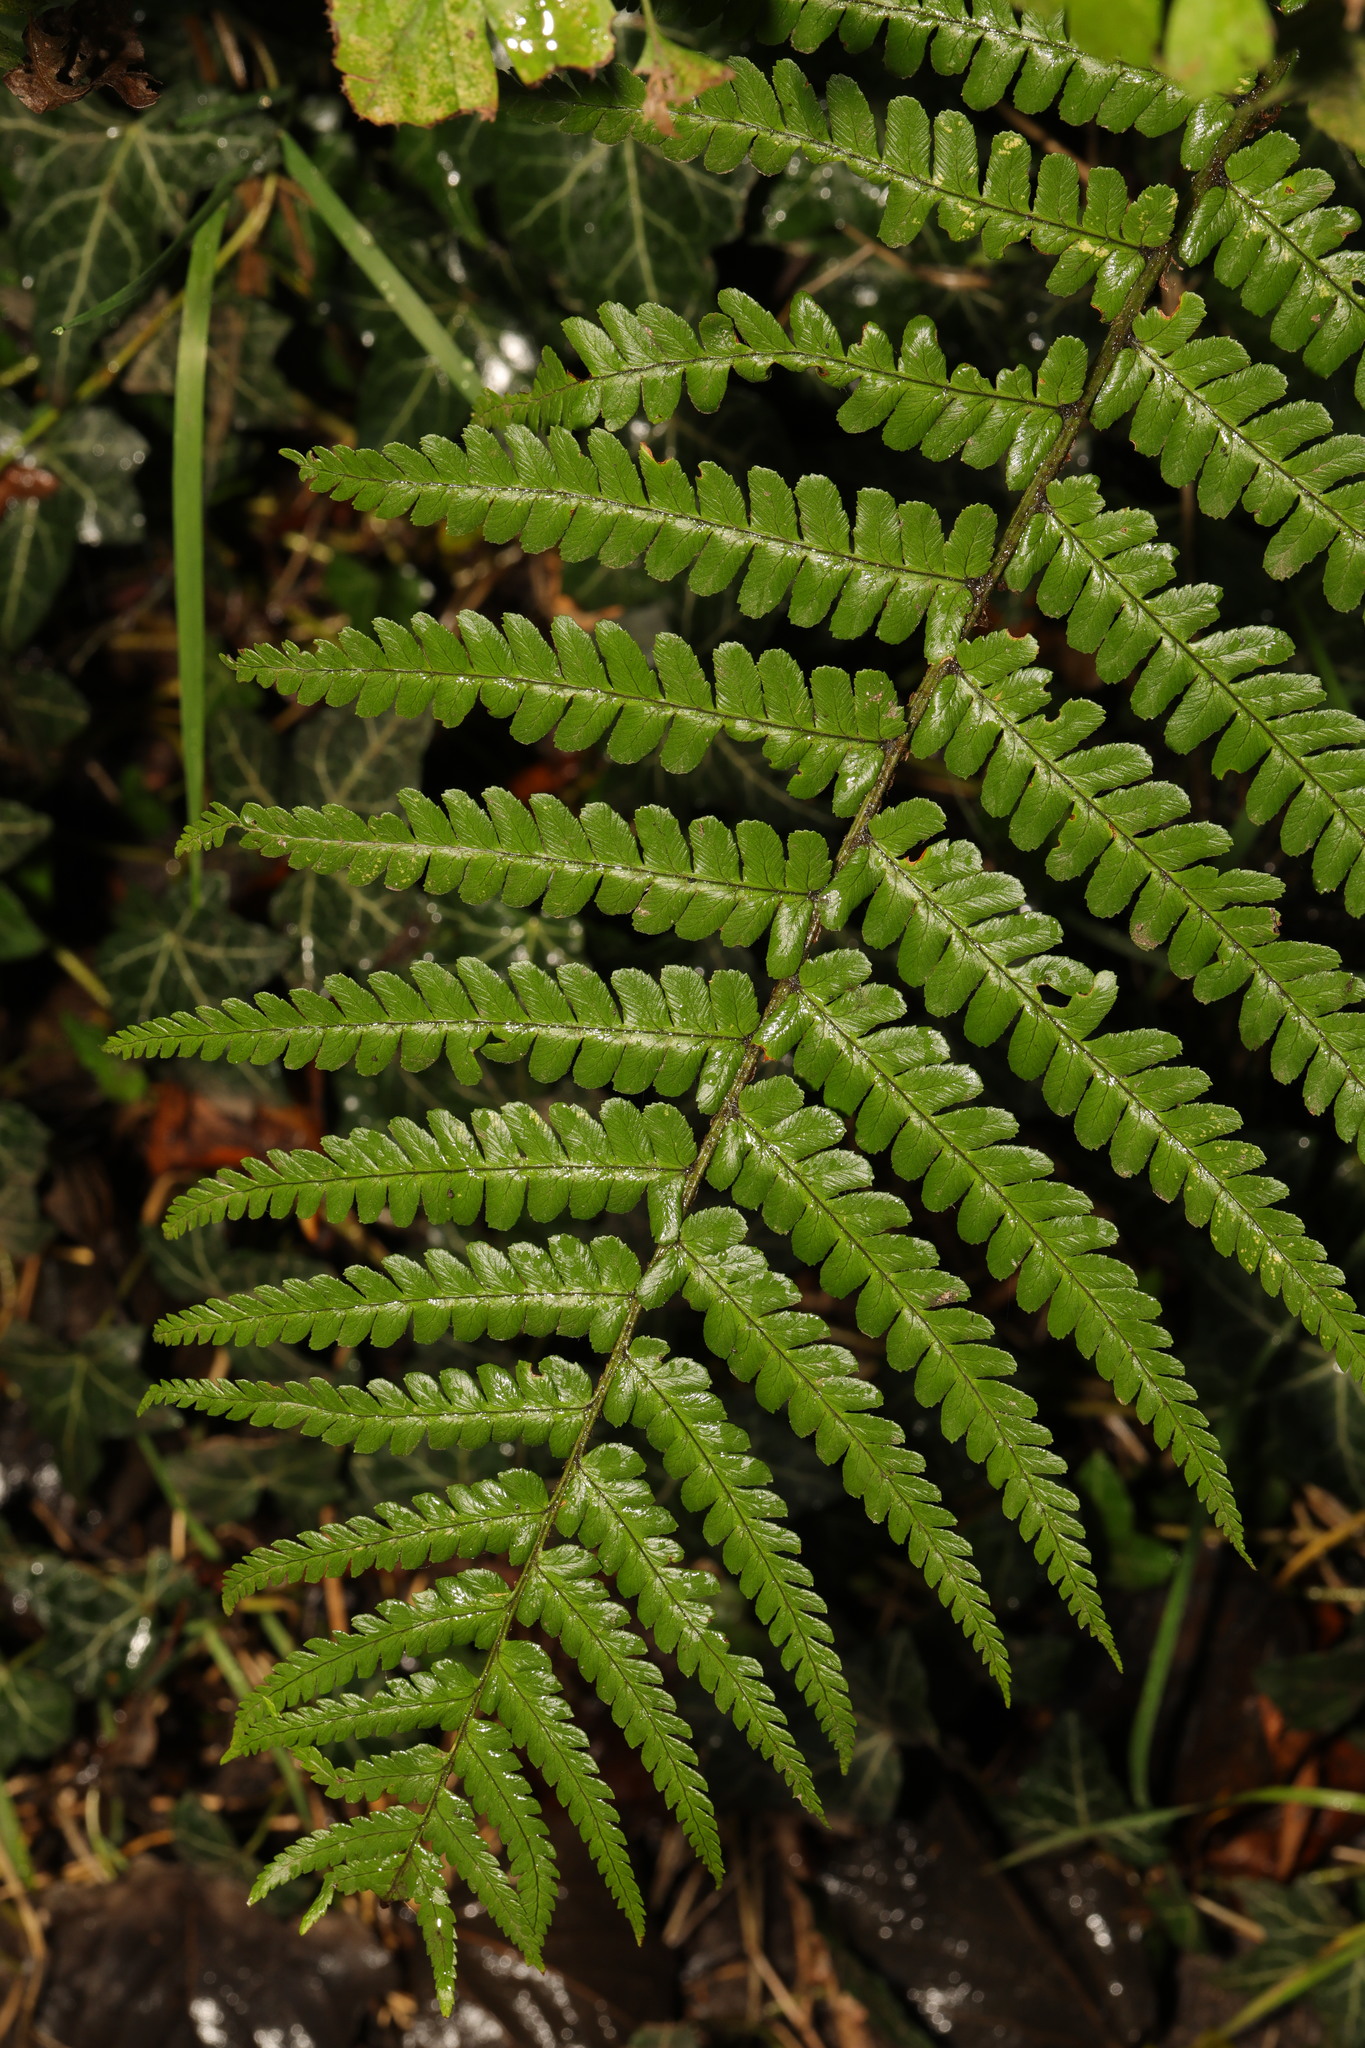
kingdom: Plantae
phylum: Tracheophyta
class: Polypodiopsida
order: Polypodiales
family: Dryopteridaceae
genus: Dryopteris
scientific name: Dryopteris filix-mas
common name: Male fern
